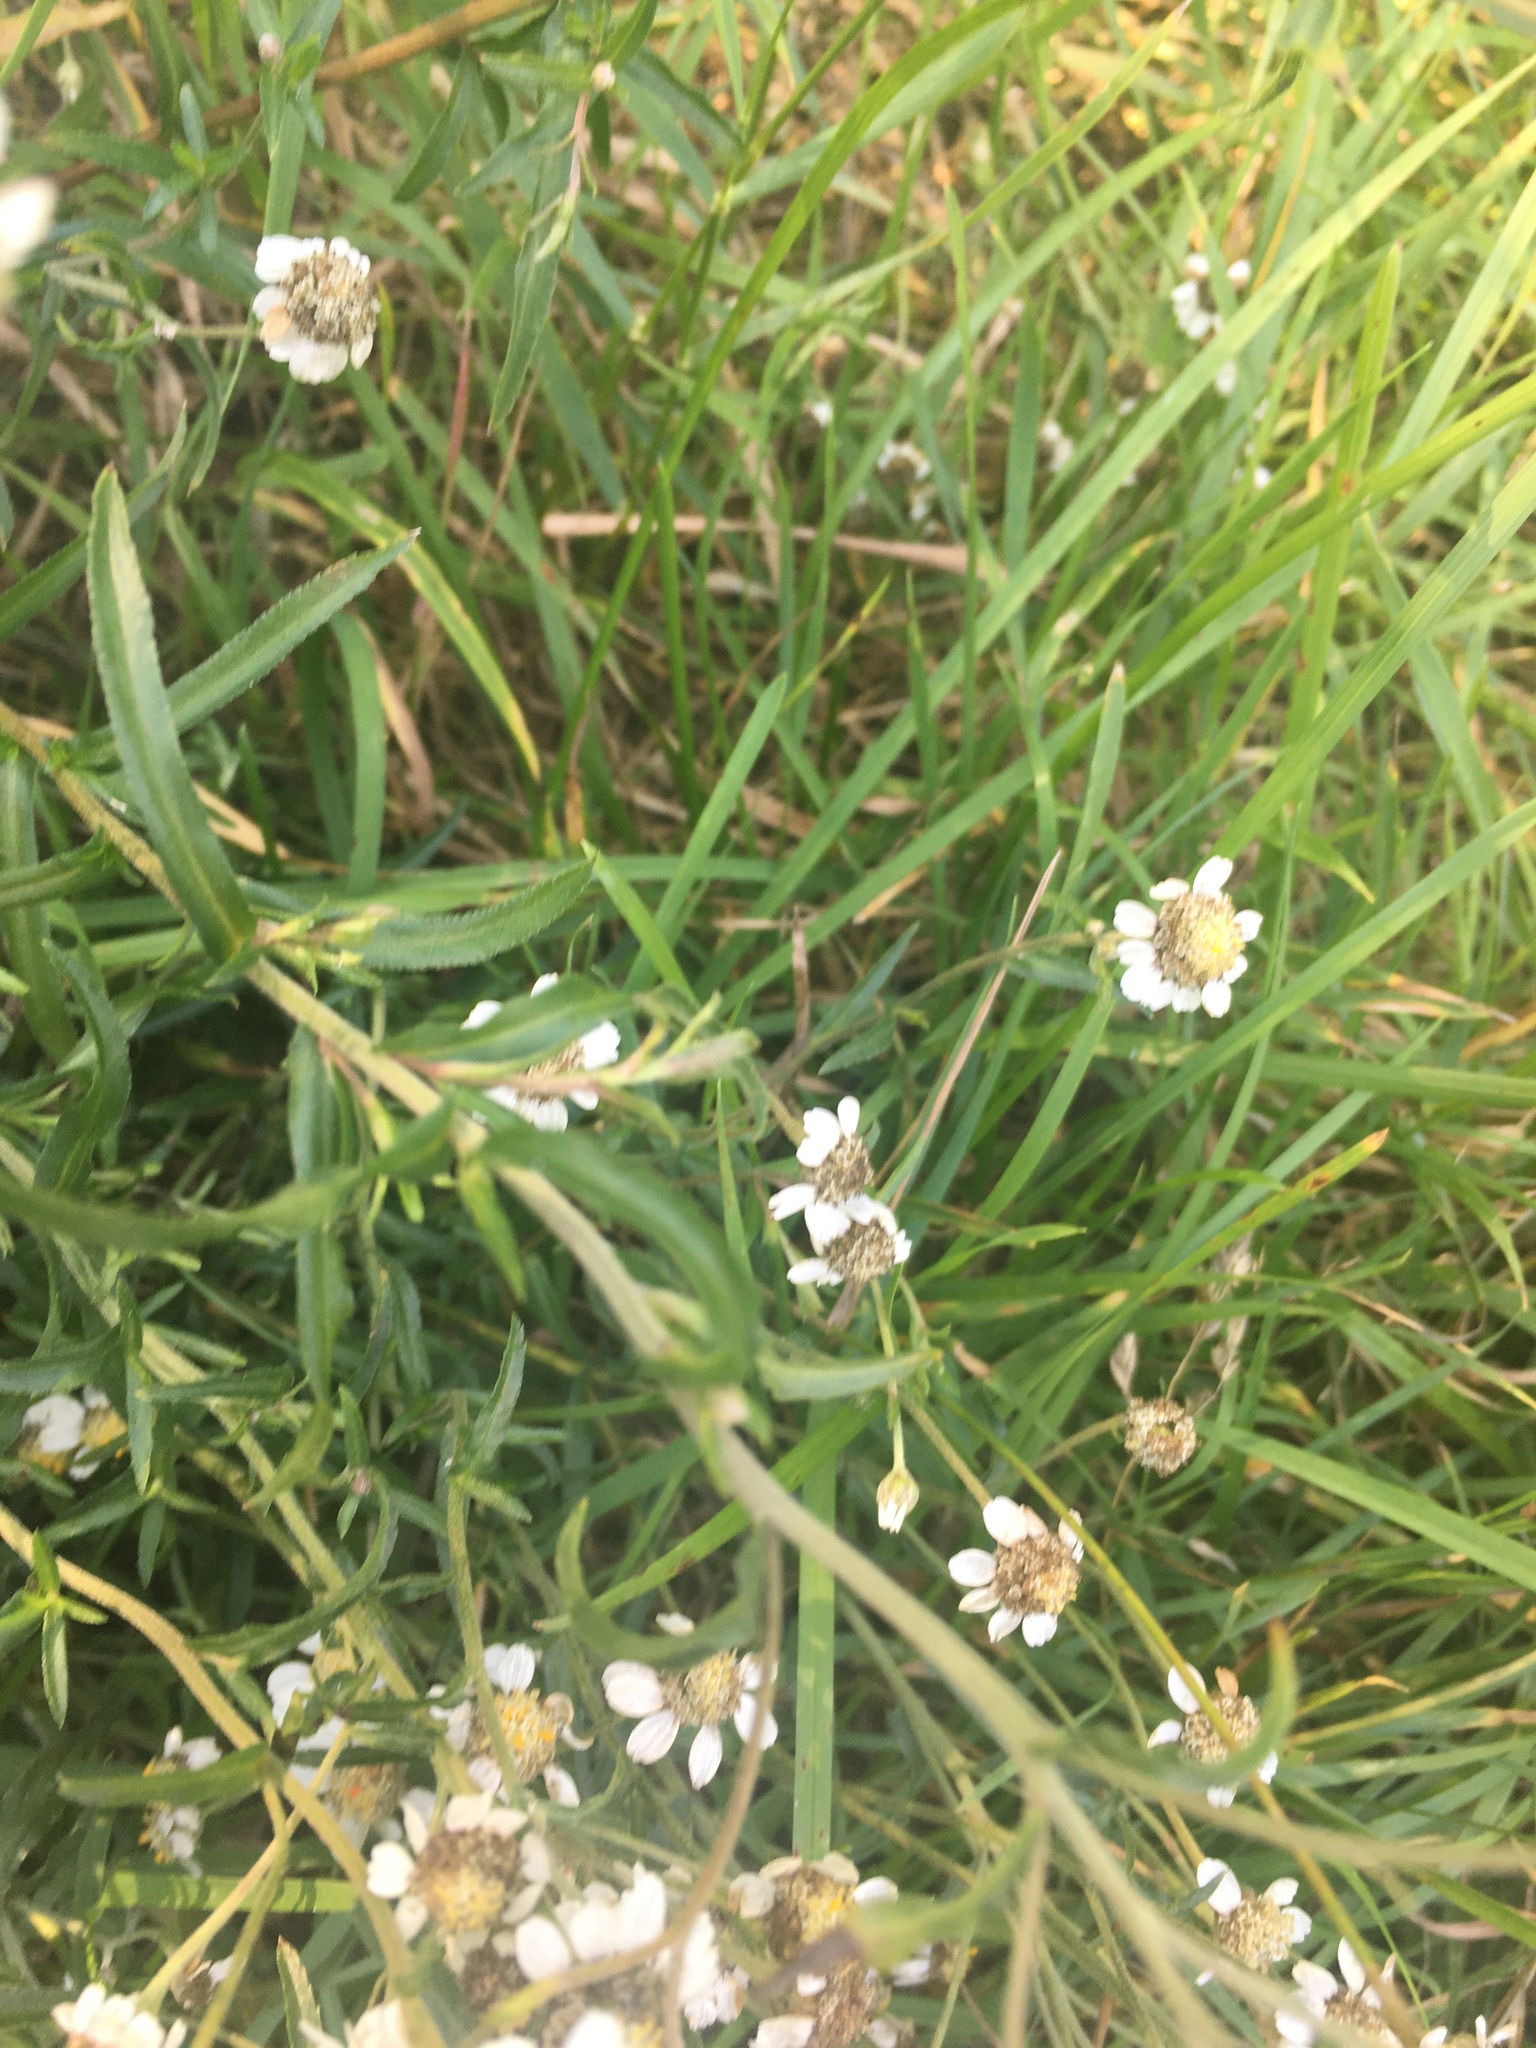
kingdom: Plantae
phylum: Tracheophyta
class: Magnoliopsida
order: Asterales
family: Asteraceae
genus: Achillea
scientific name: Achillea ptarmica
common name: Sneezeweed
